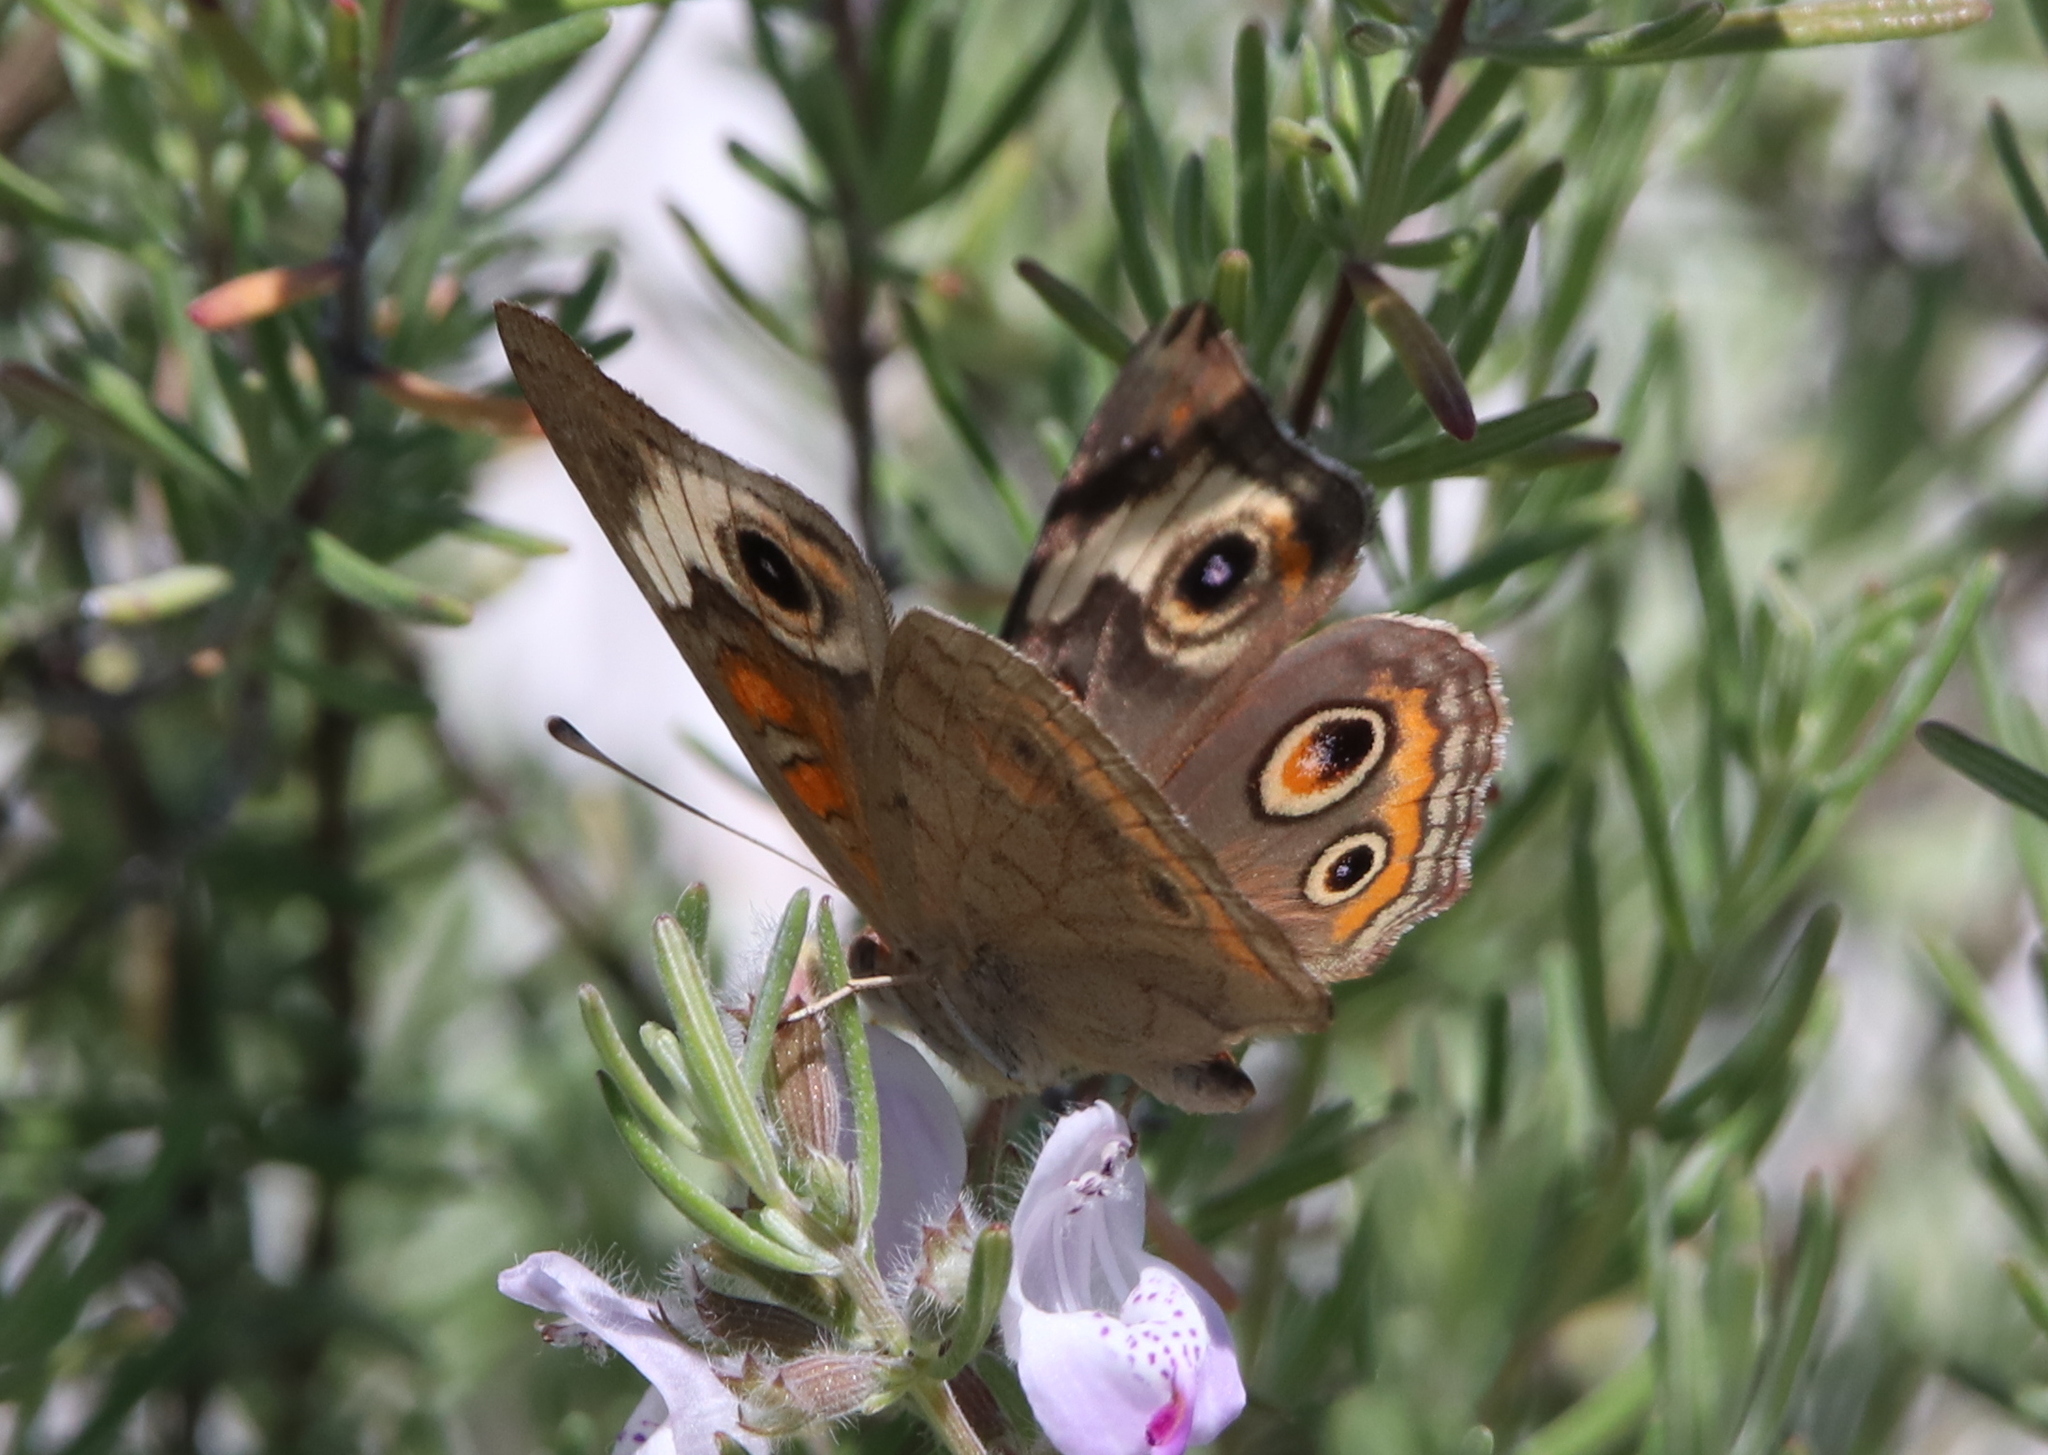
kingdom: Animalia
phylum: Arthropoda
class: Insecta
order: Lepidoptera
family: Nymphalidae
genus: Junonia
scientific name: Junonia coenia
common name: Common buckeye
